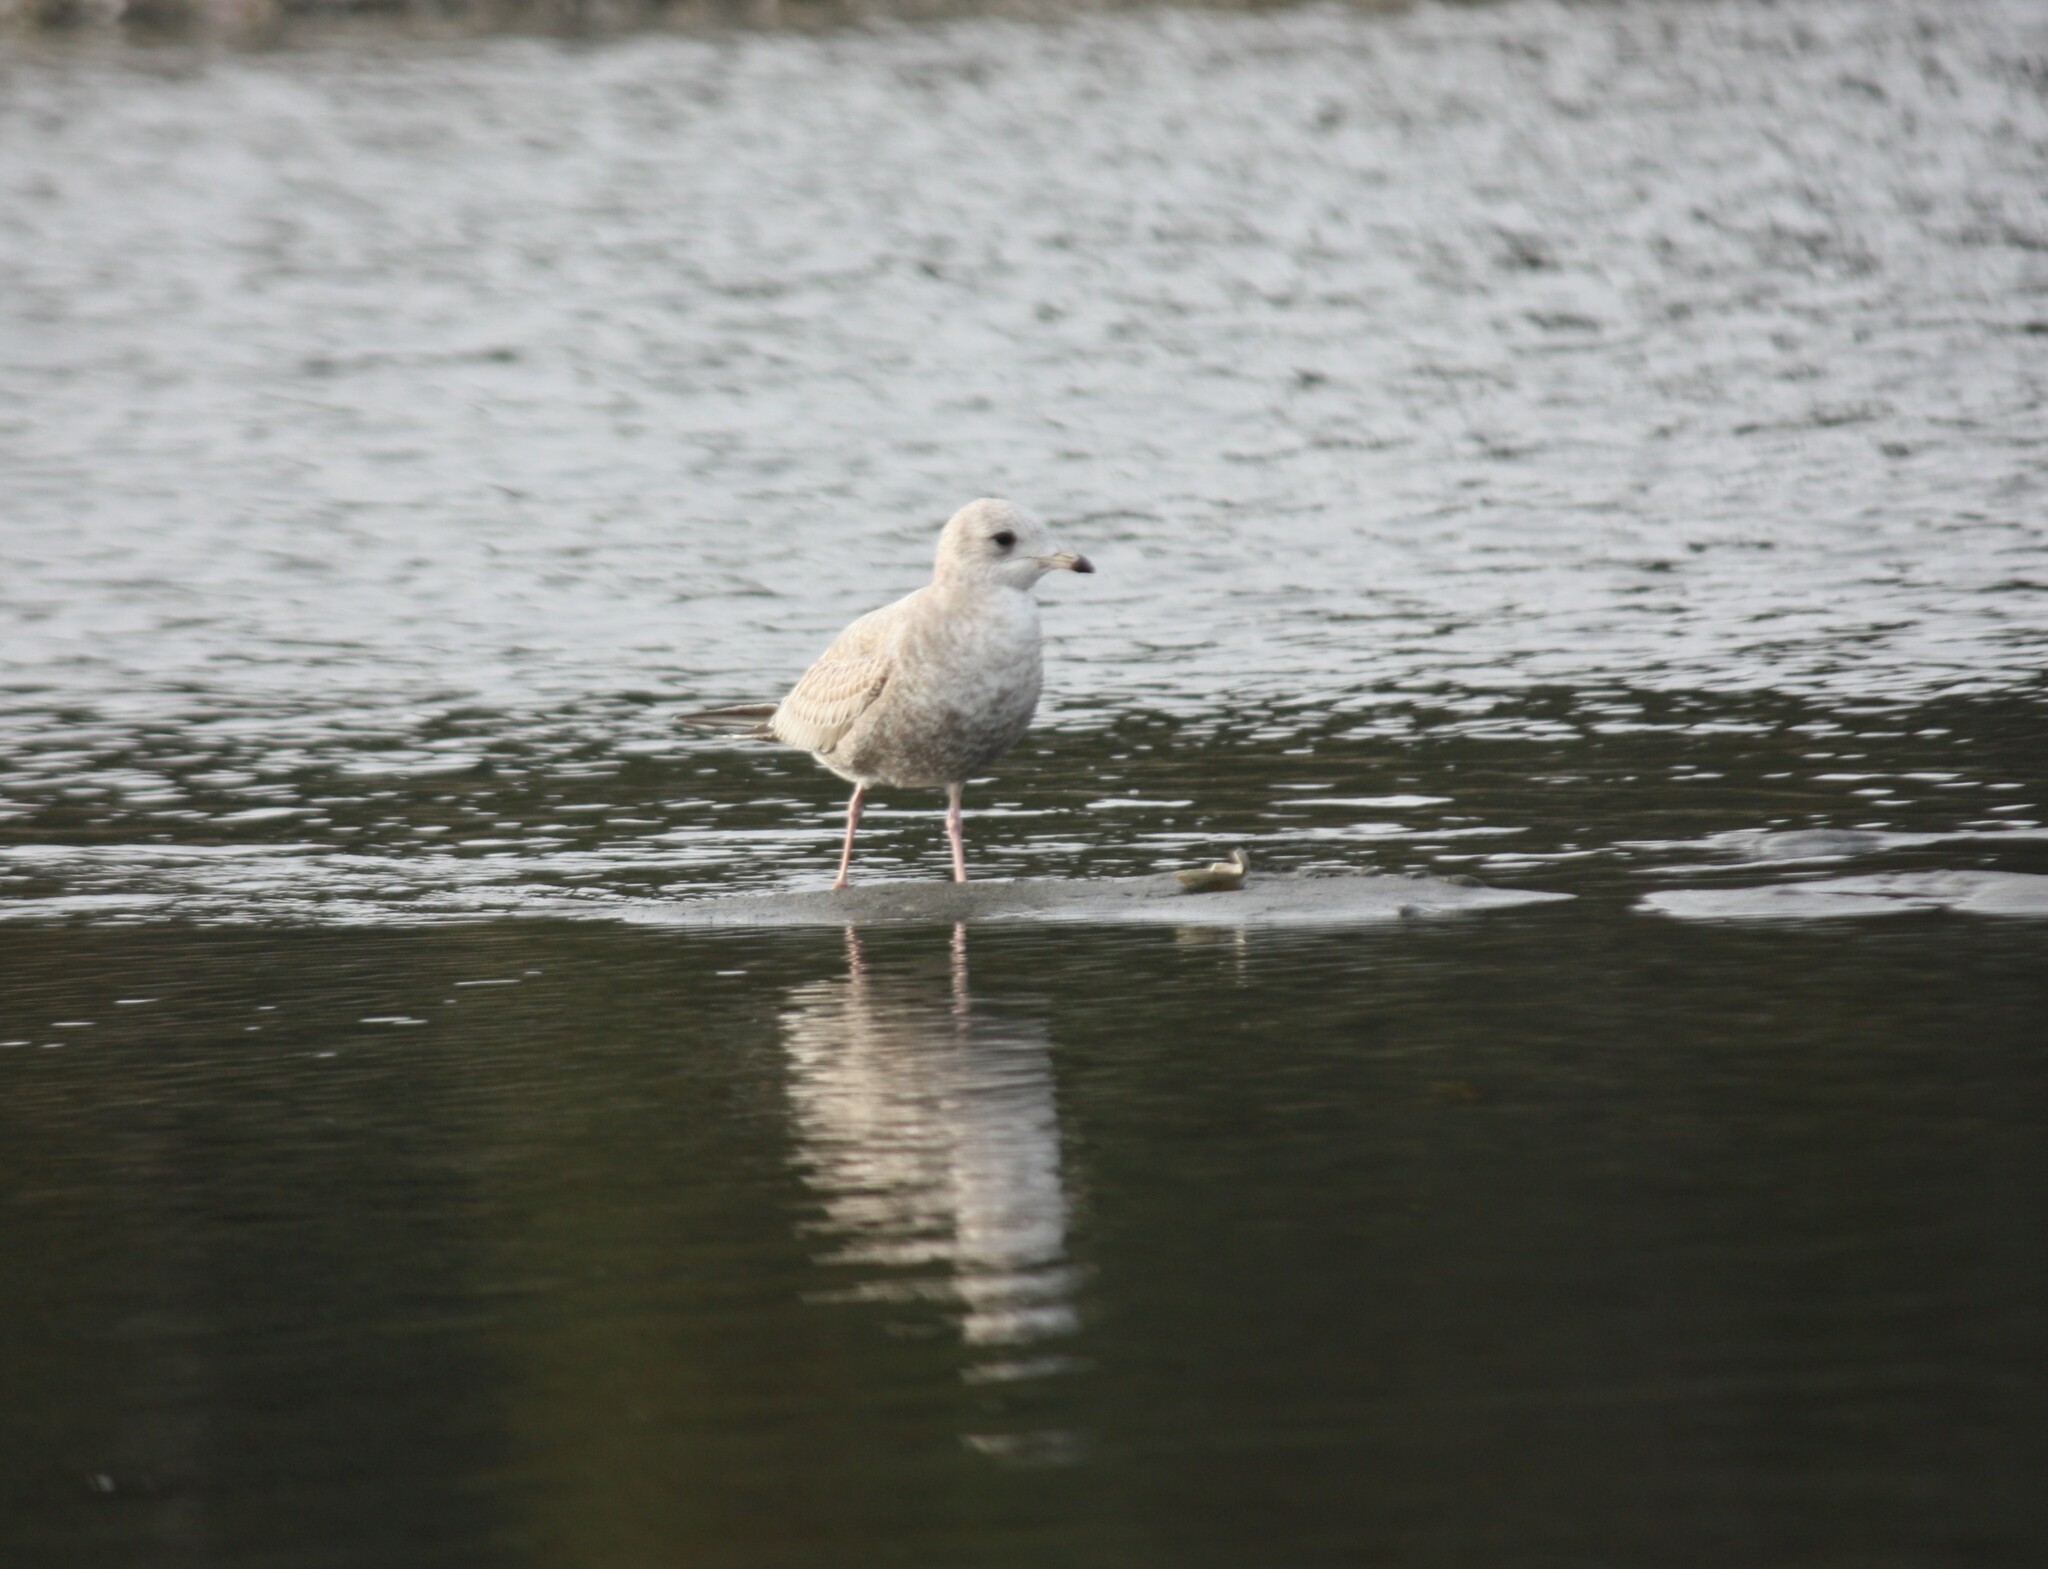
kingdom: Animalia
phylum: Chordata
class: Aves
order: Charadriiformes
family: Laridae
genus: Larus
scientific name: Larus brachyrhynchus
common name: Short-billed gull
